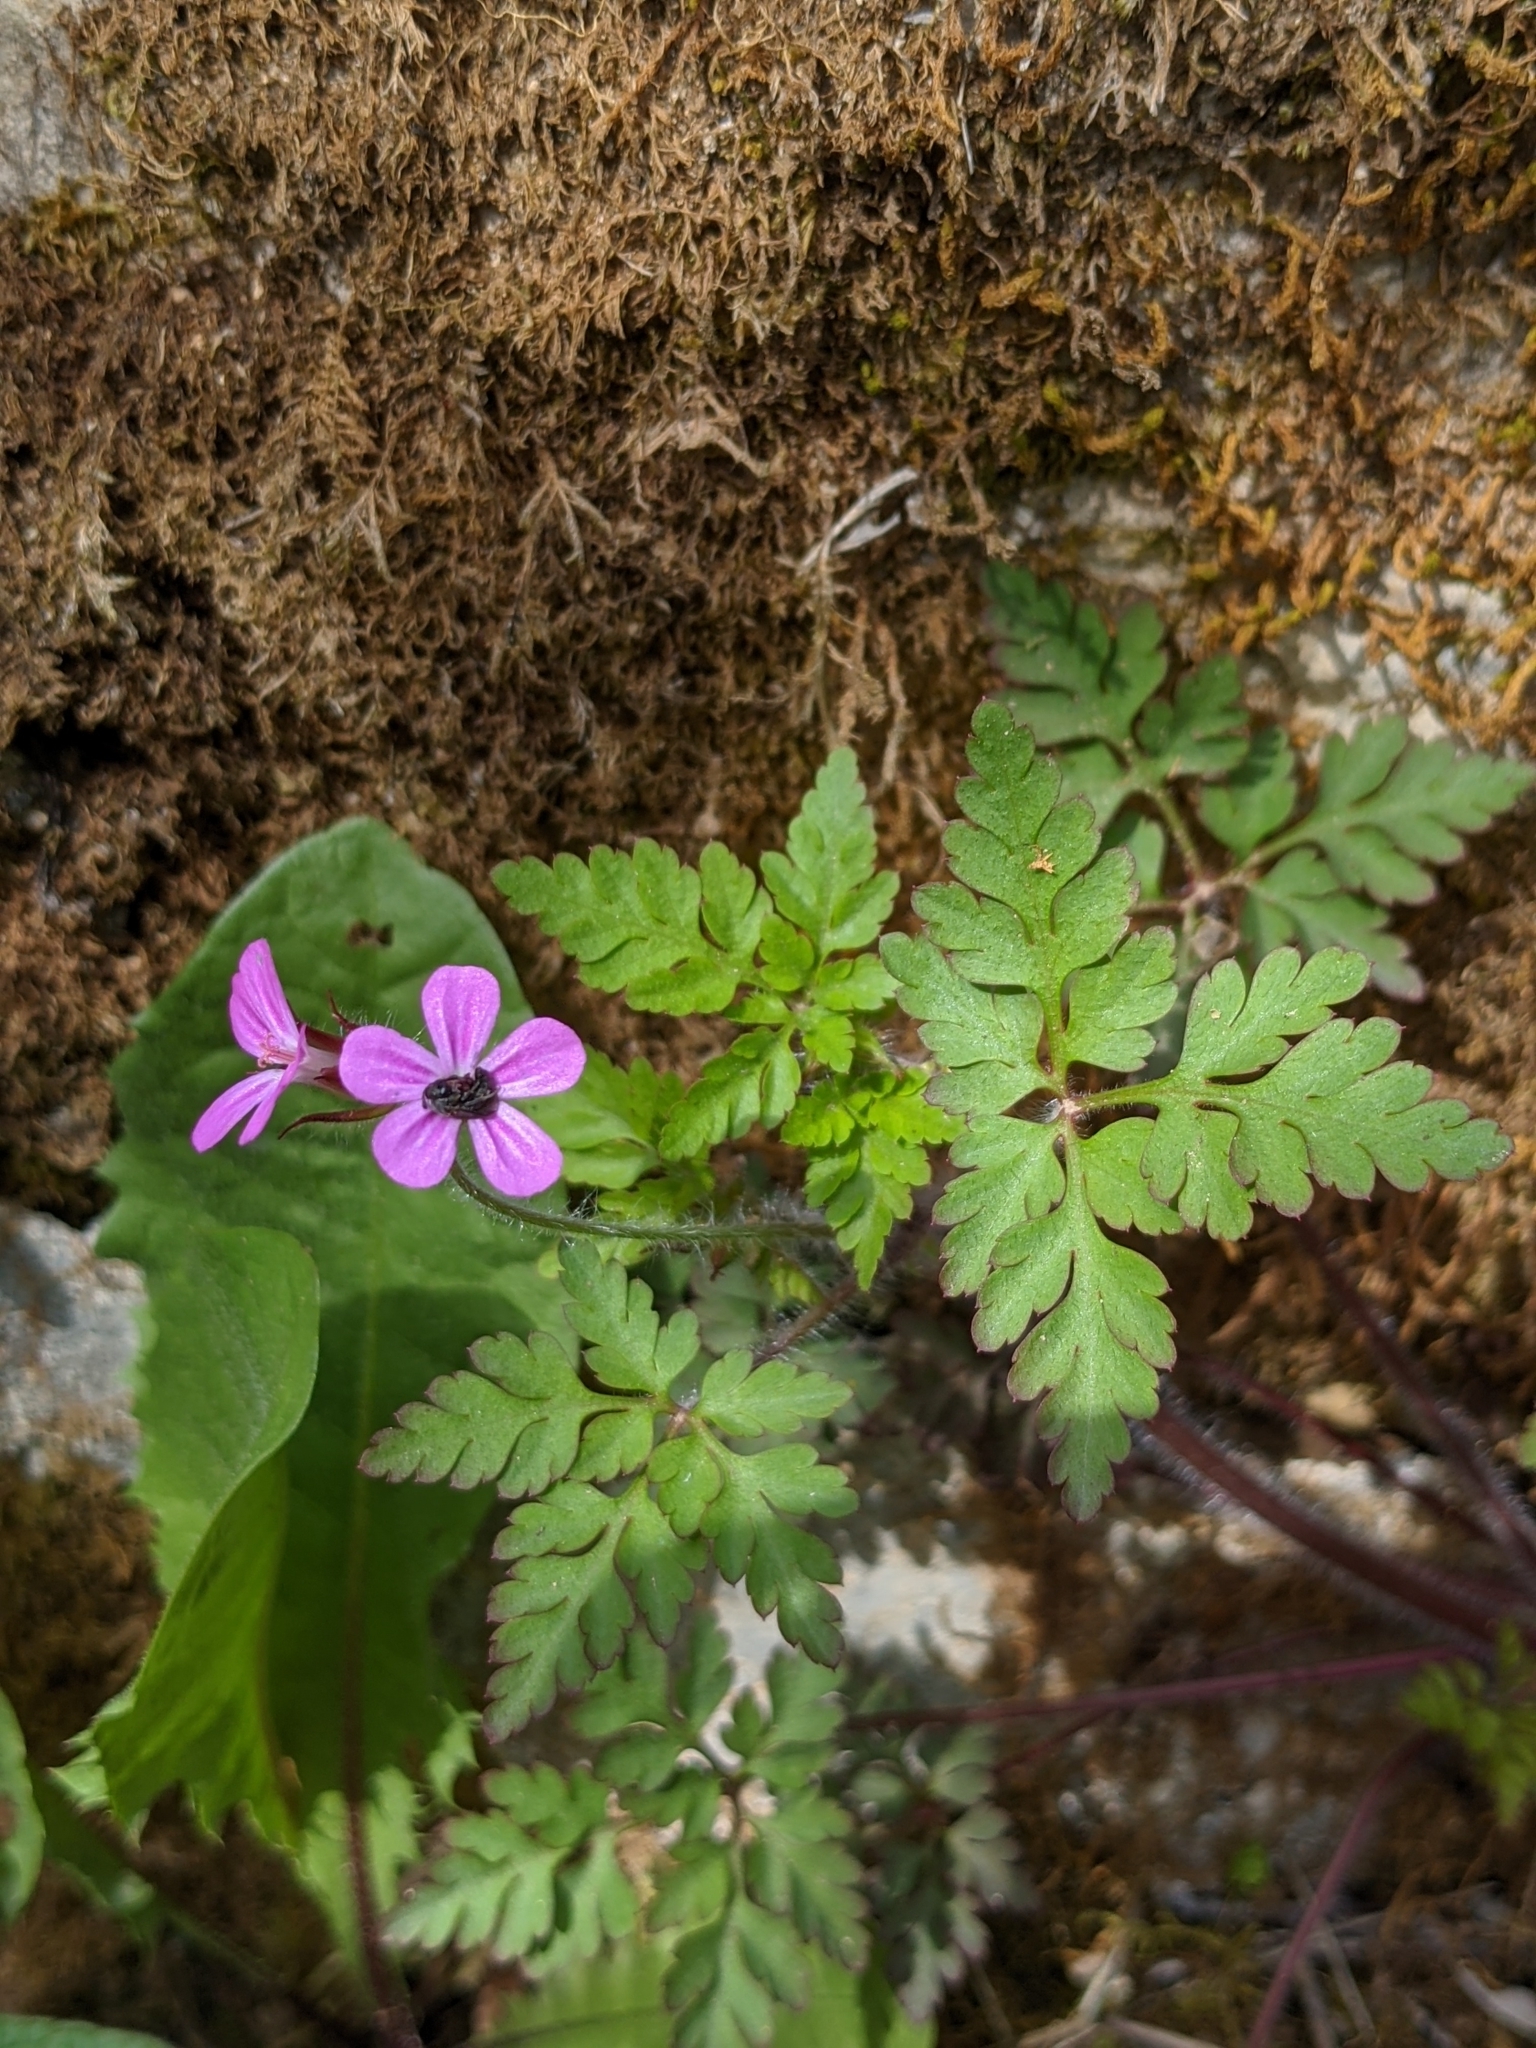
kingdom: Plantae
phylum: Tracheophyta
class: Magnoliopsida
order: Geraniales
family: Geraniaceae
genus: Geranium
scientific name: Geranium robertianum
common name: Herb-robert
